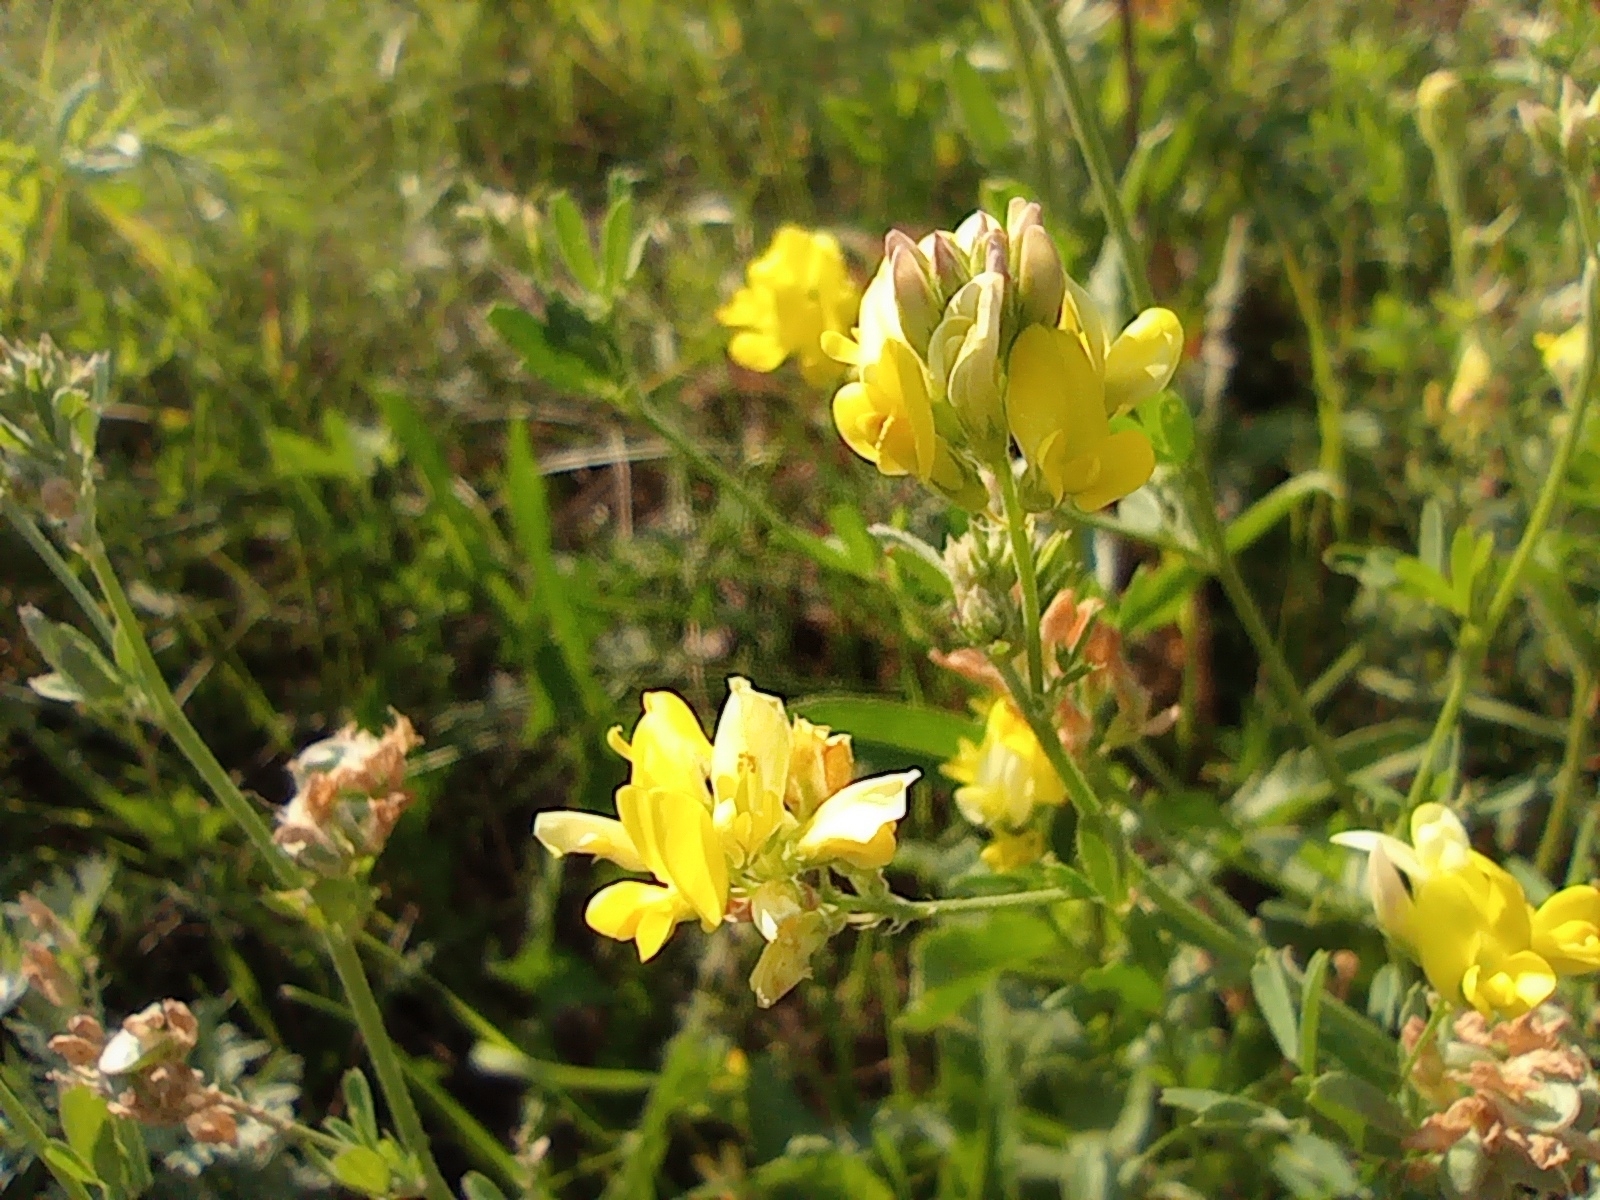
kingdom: Plantae
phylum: Tracheophyta
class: Magnoliopsida
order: Fabales
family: Fabaceae
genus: Medicago
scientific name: Medicago falcata
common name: Sickle medick
